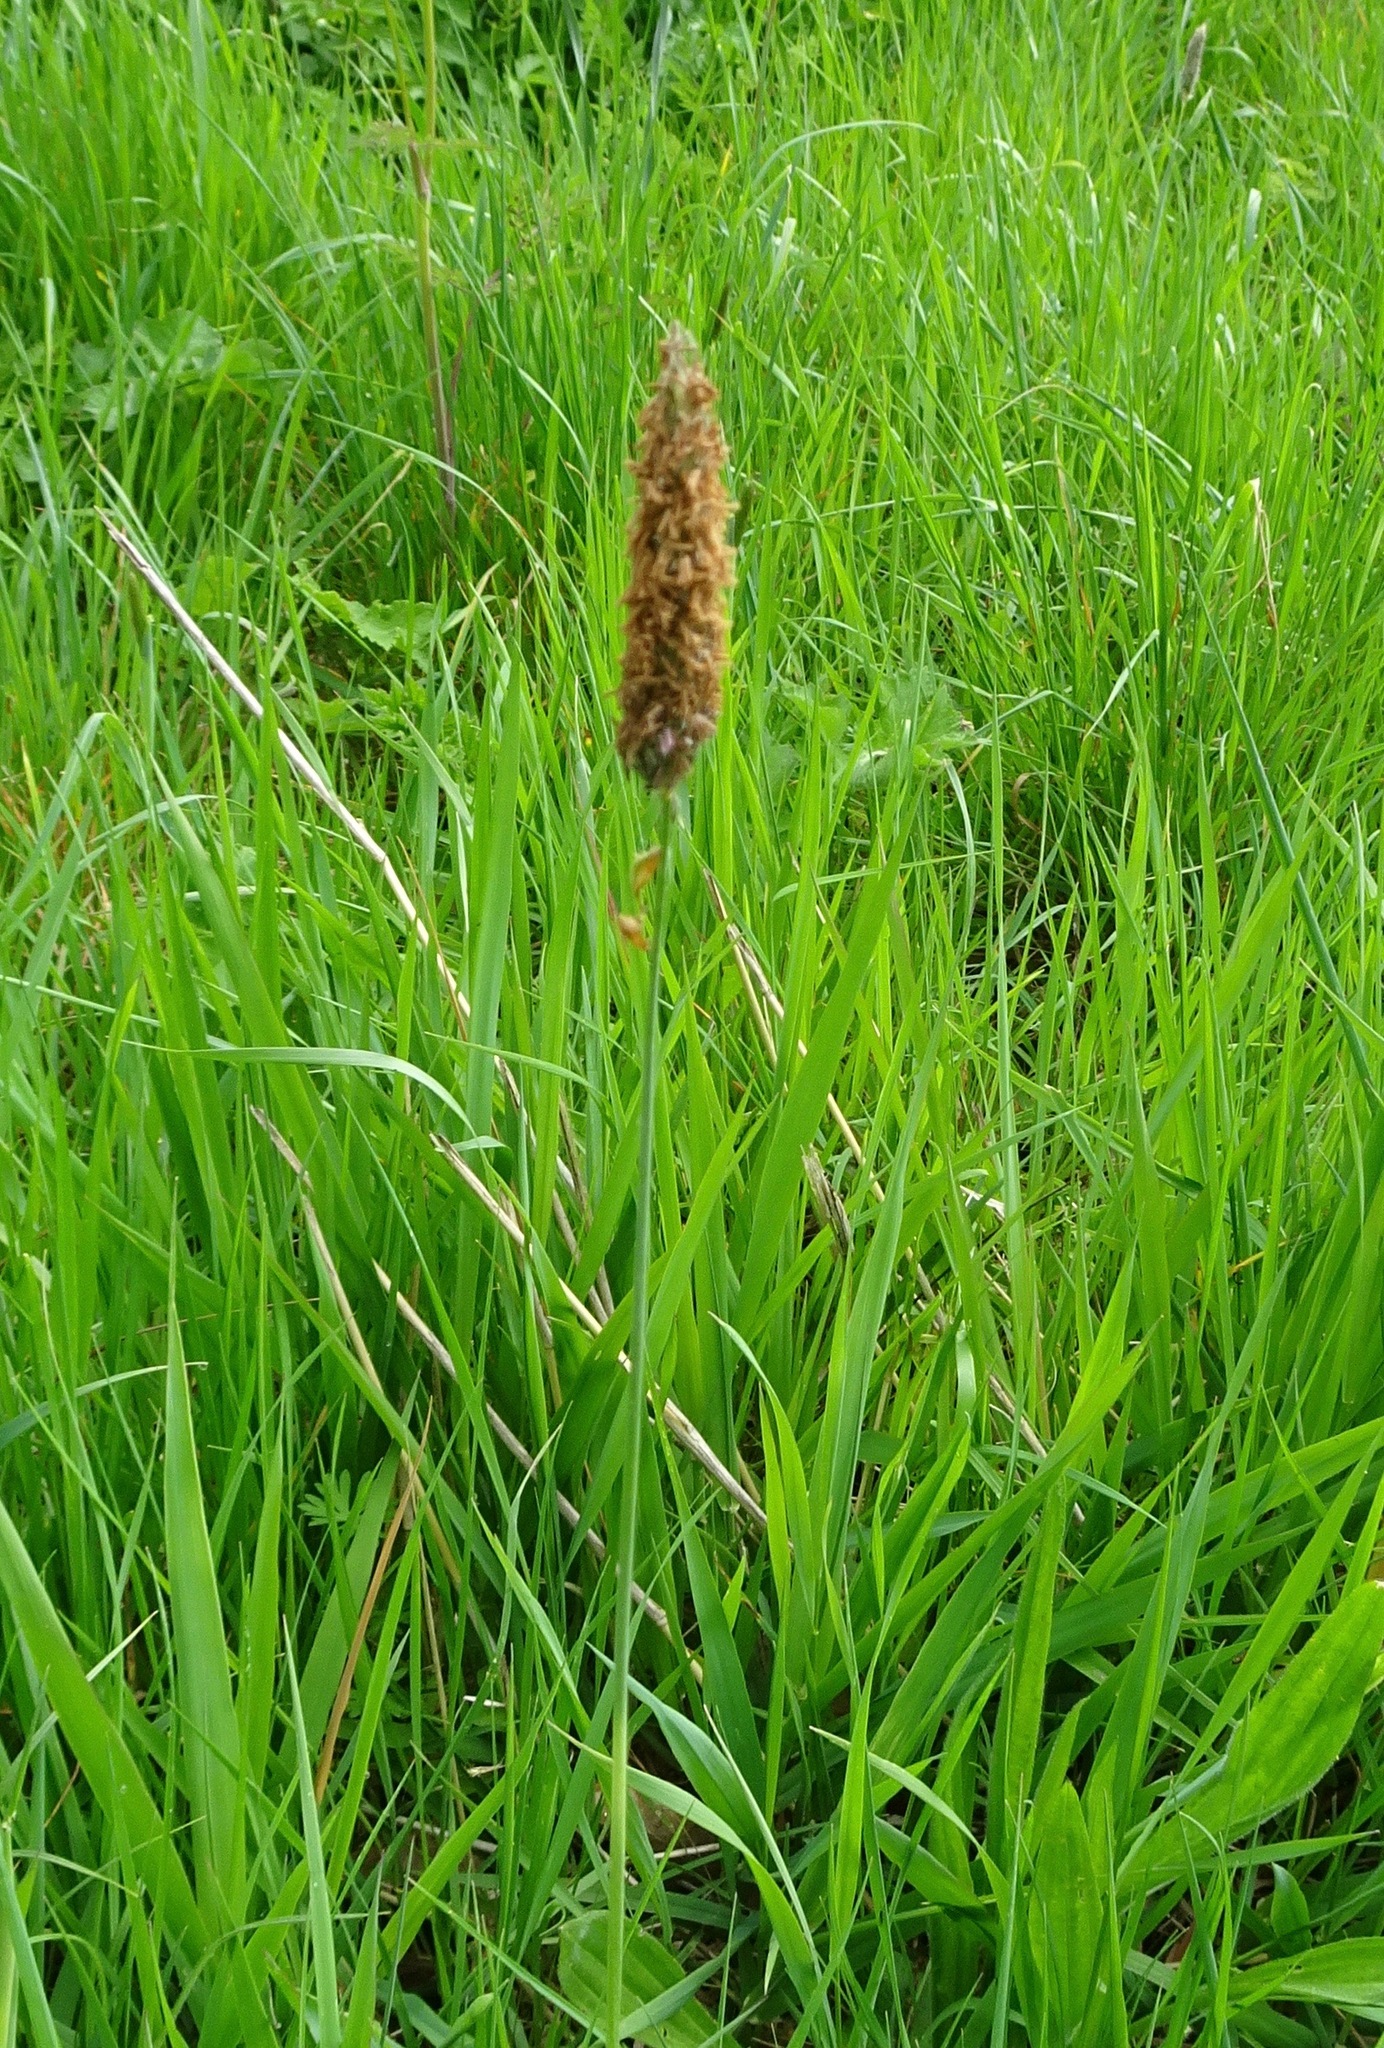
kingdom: Plantae
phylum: Tracheophyta
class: Liliopsida
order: Poales
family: Poaceae
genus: Alopecurus
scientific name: Alopecurus pratensis
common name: Meadow foxtail
